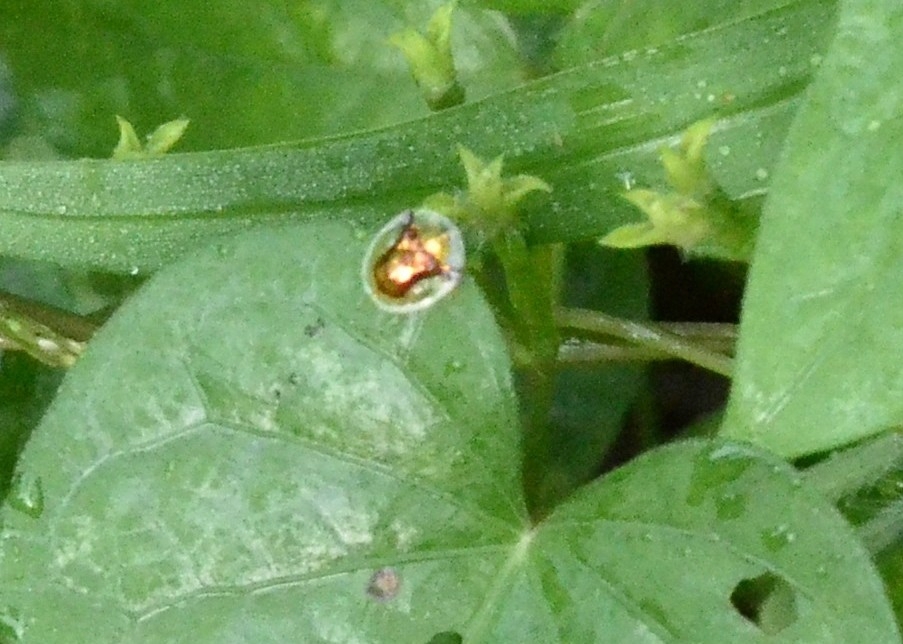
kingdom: Animalia
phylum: Arthropoda
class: Insecta
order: Coleoptera
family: Chrysomelidae
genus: Aspidimorpha
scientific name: Aspidimorpha furcata
